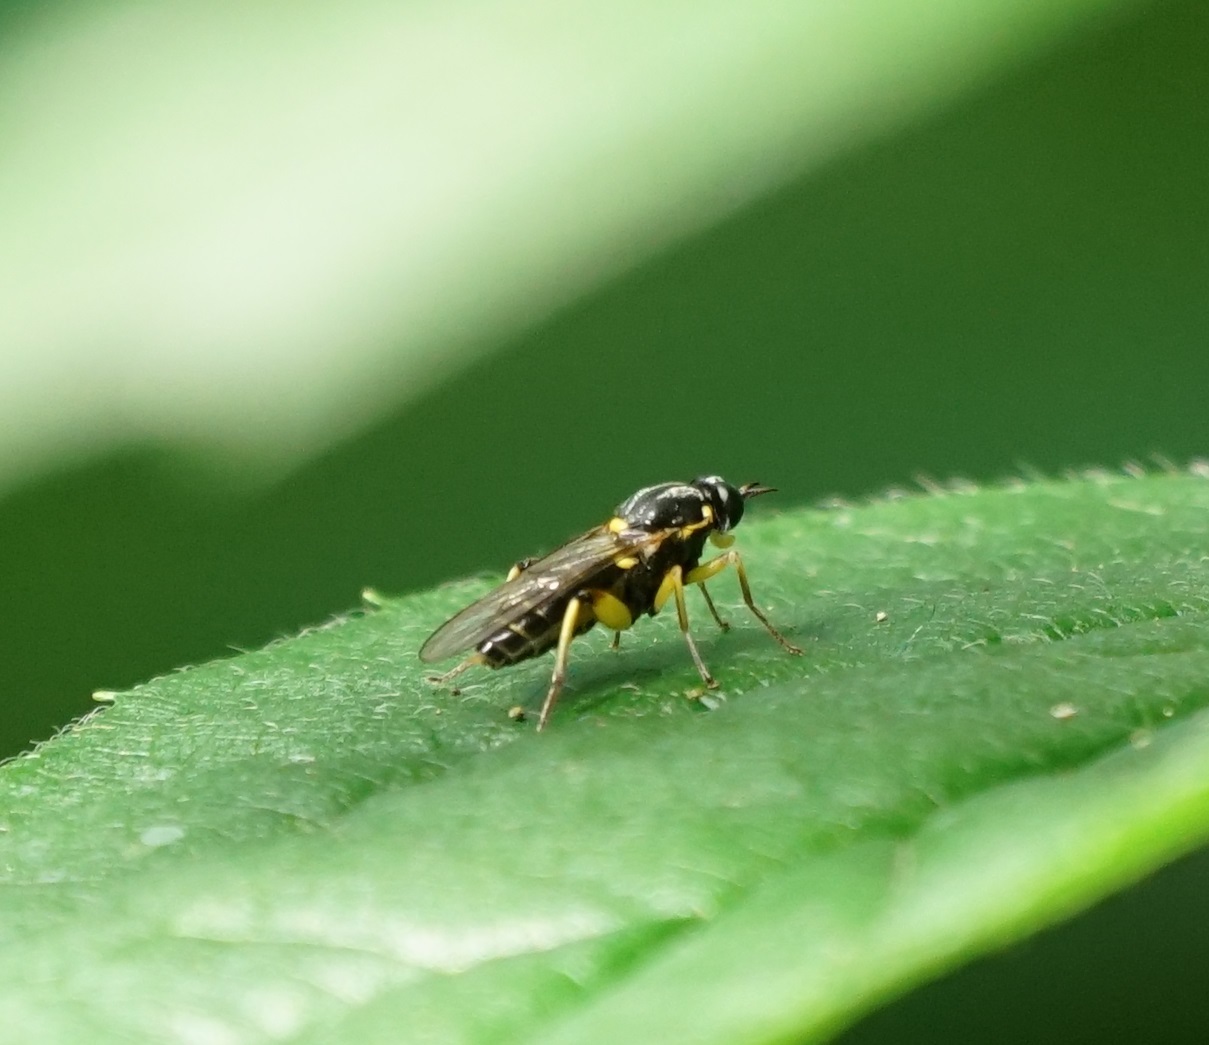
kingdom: Animalia
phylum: Arthropoda
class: Insecta
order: Diptera
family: Xylomyidae
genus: Solva
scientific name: Solva marginata
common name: Drab wood-soldierfly
